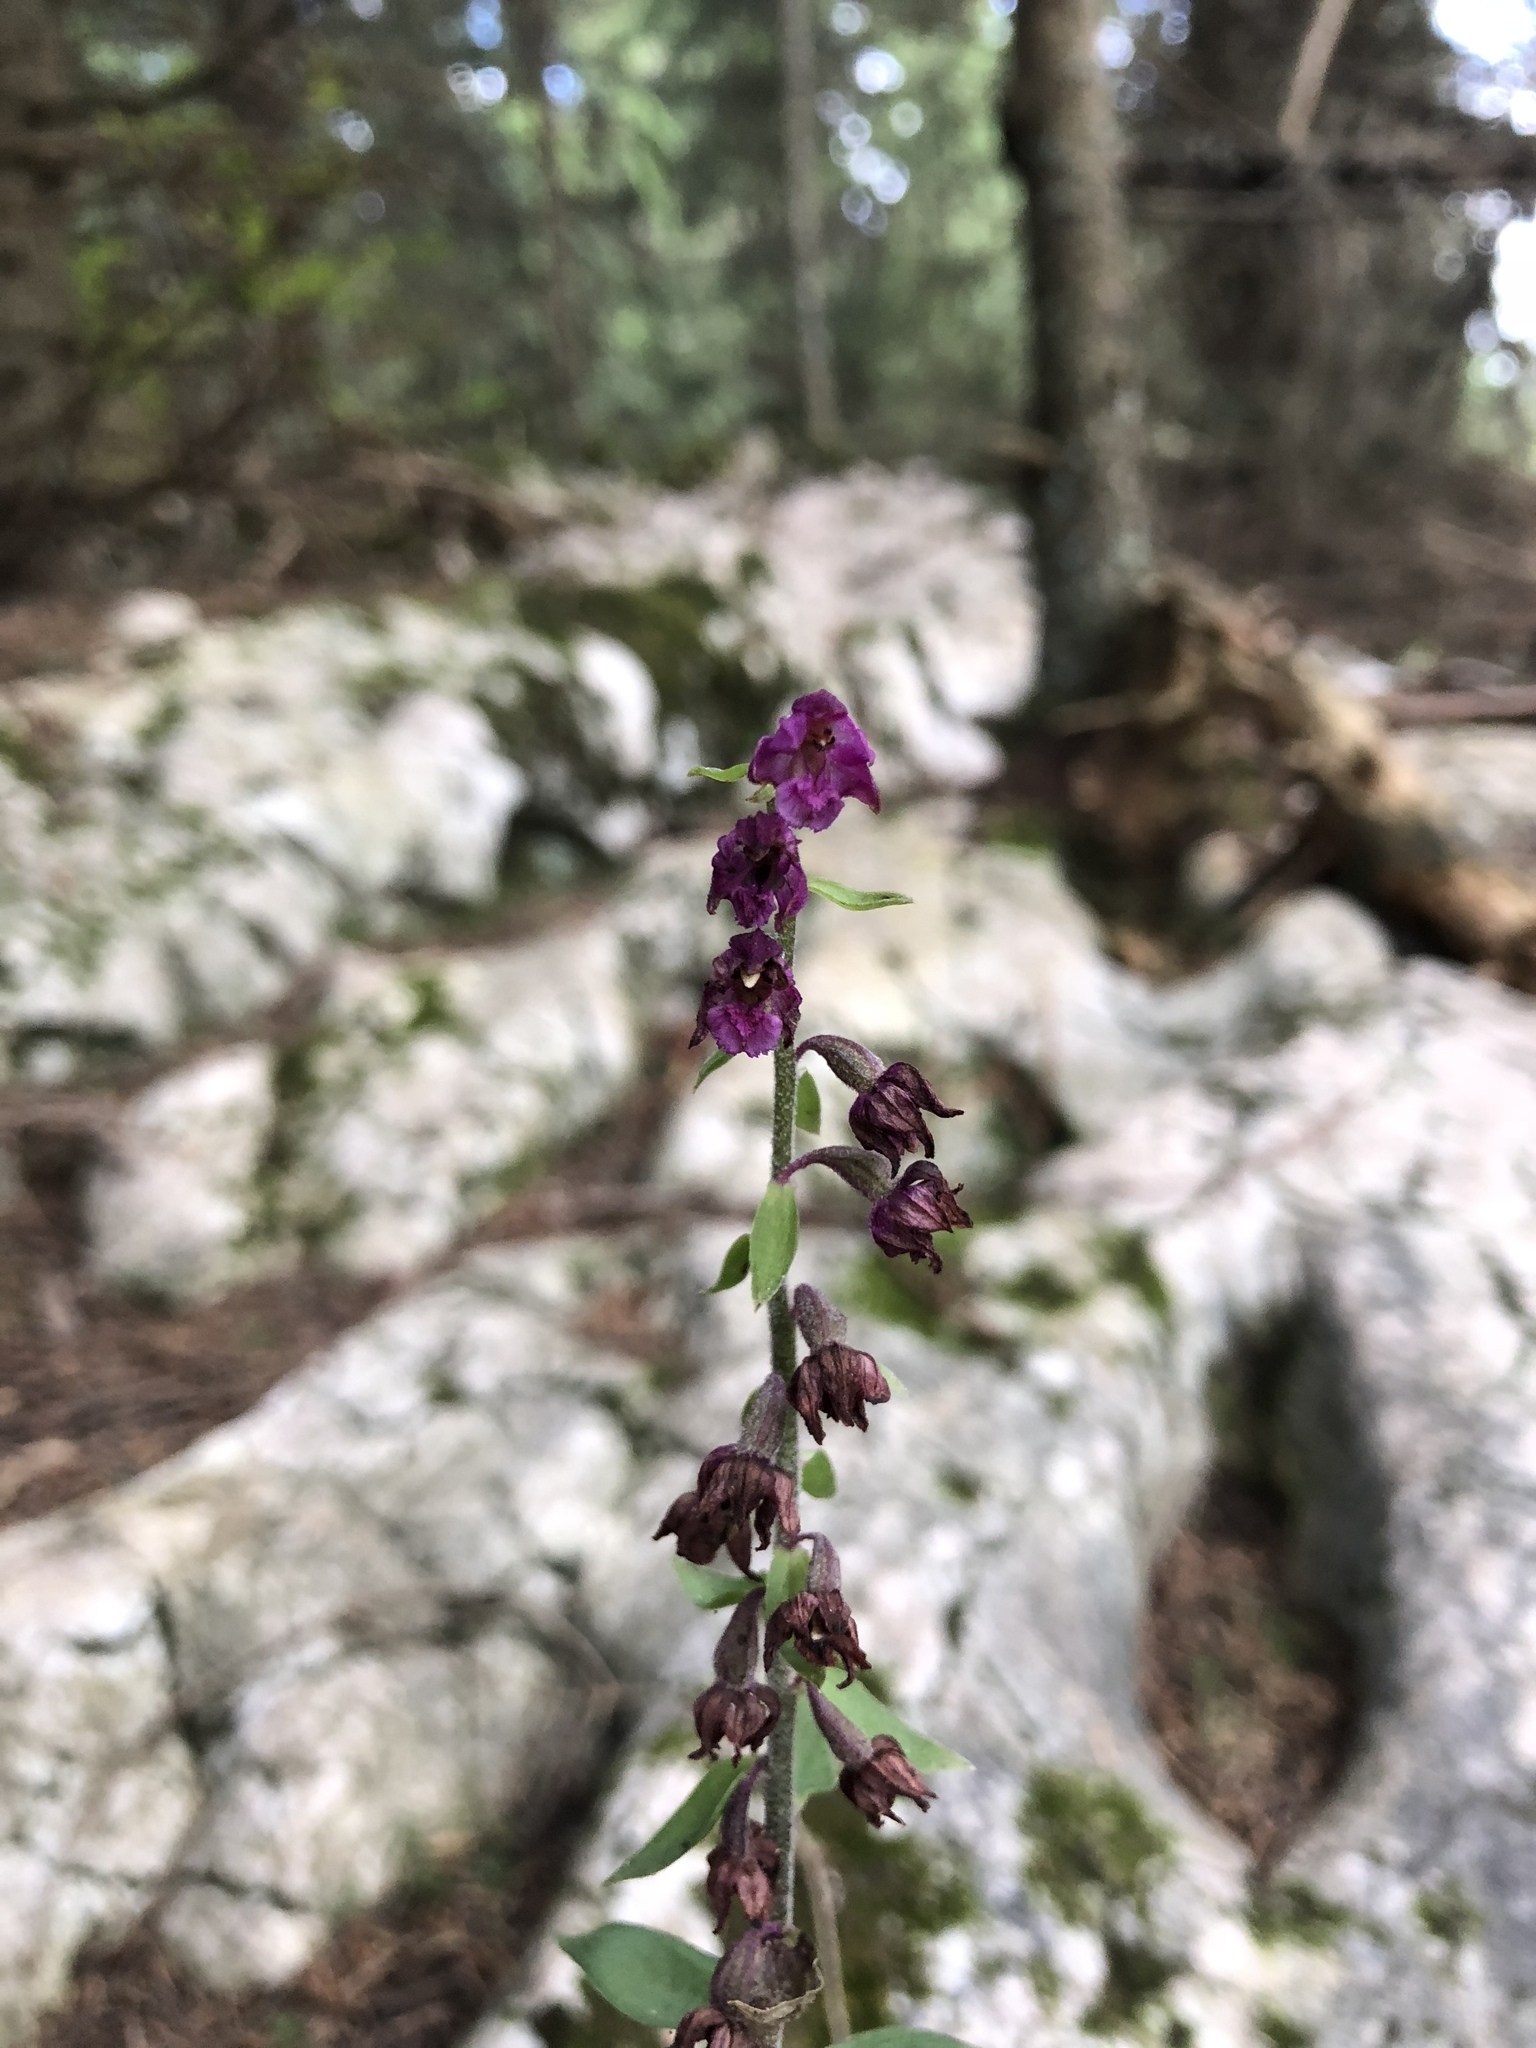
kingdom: Plantae
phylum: Tracheophyta
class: Liliopsida
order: Asparagales
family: Orchidaceae
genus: Epipactis
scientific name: Epipactis atrorubens
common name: Dark-red helleborine
